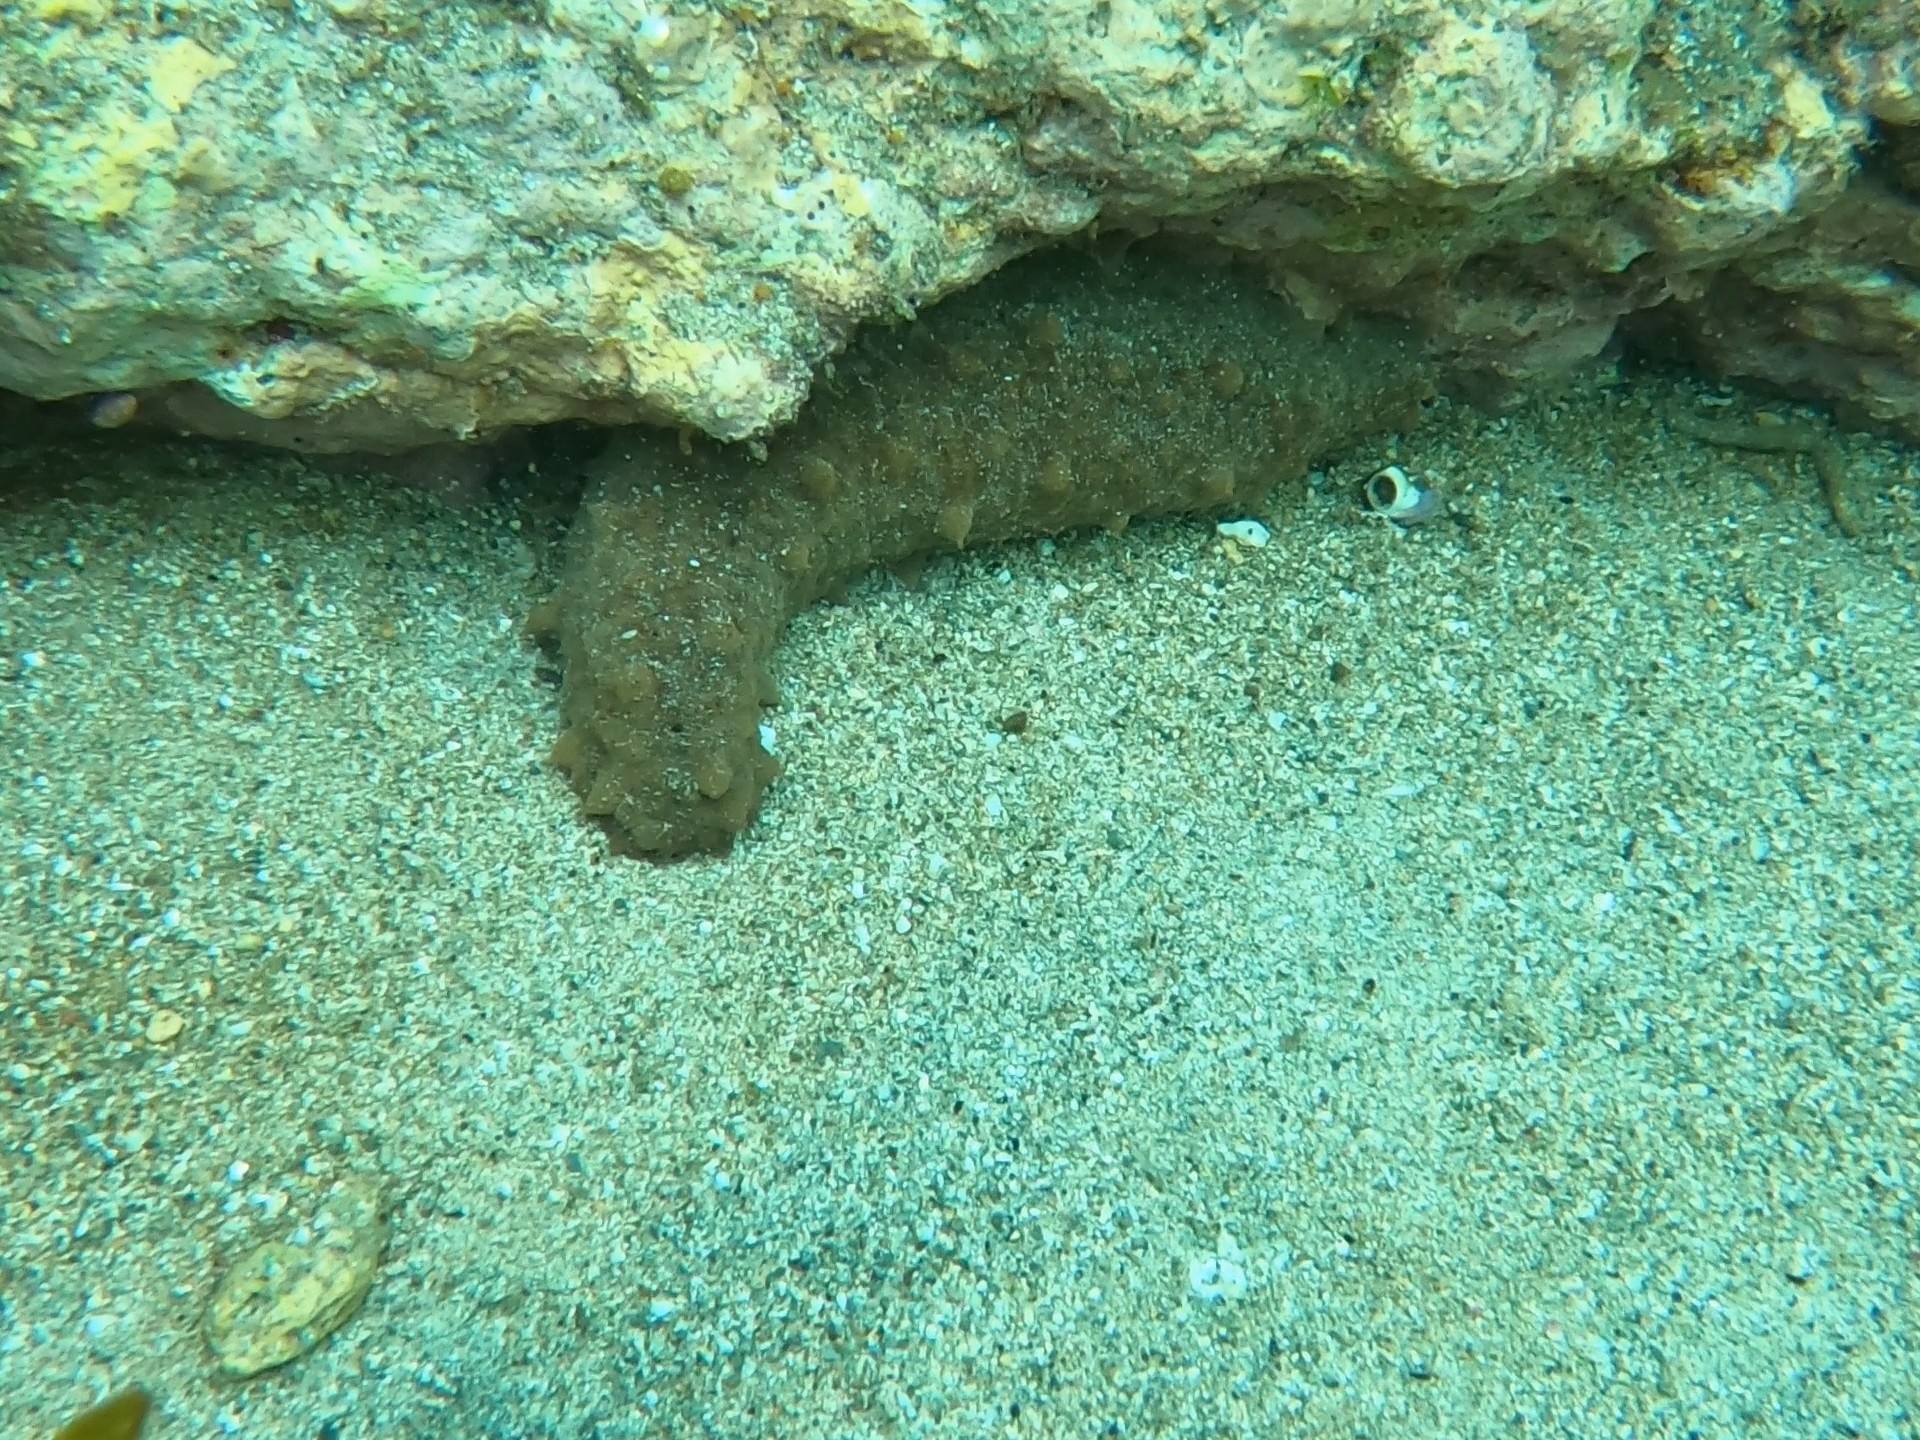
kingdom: Animalia
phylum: Echinodermata
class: Holothuroidea
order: Synallactida
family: Stichopodidae
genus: Australostichopus
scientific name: Australostichopus mollis
